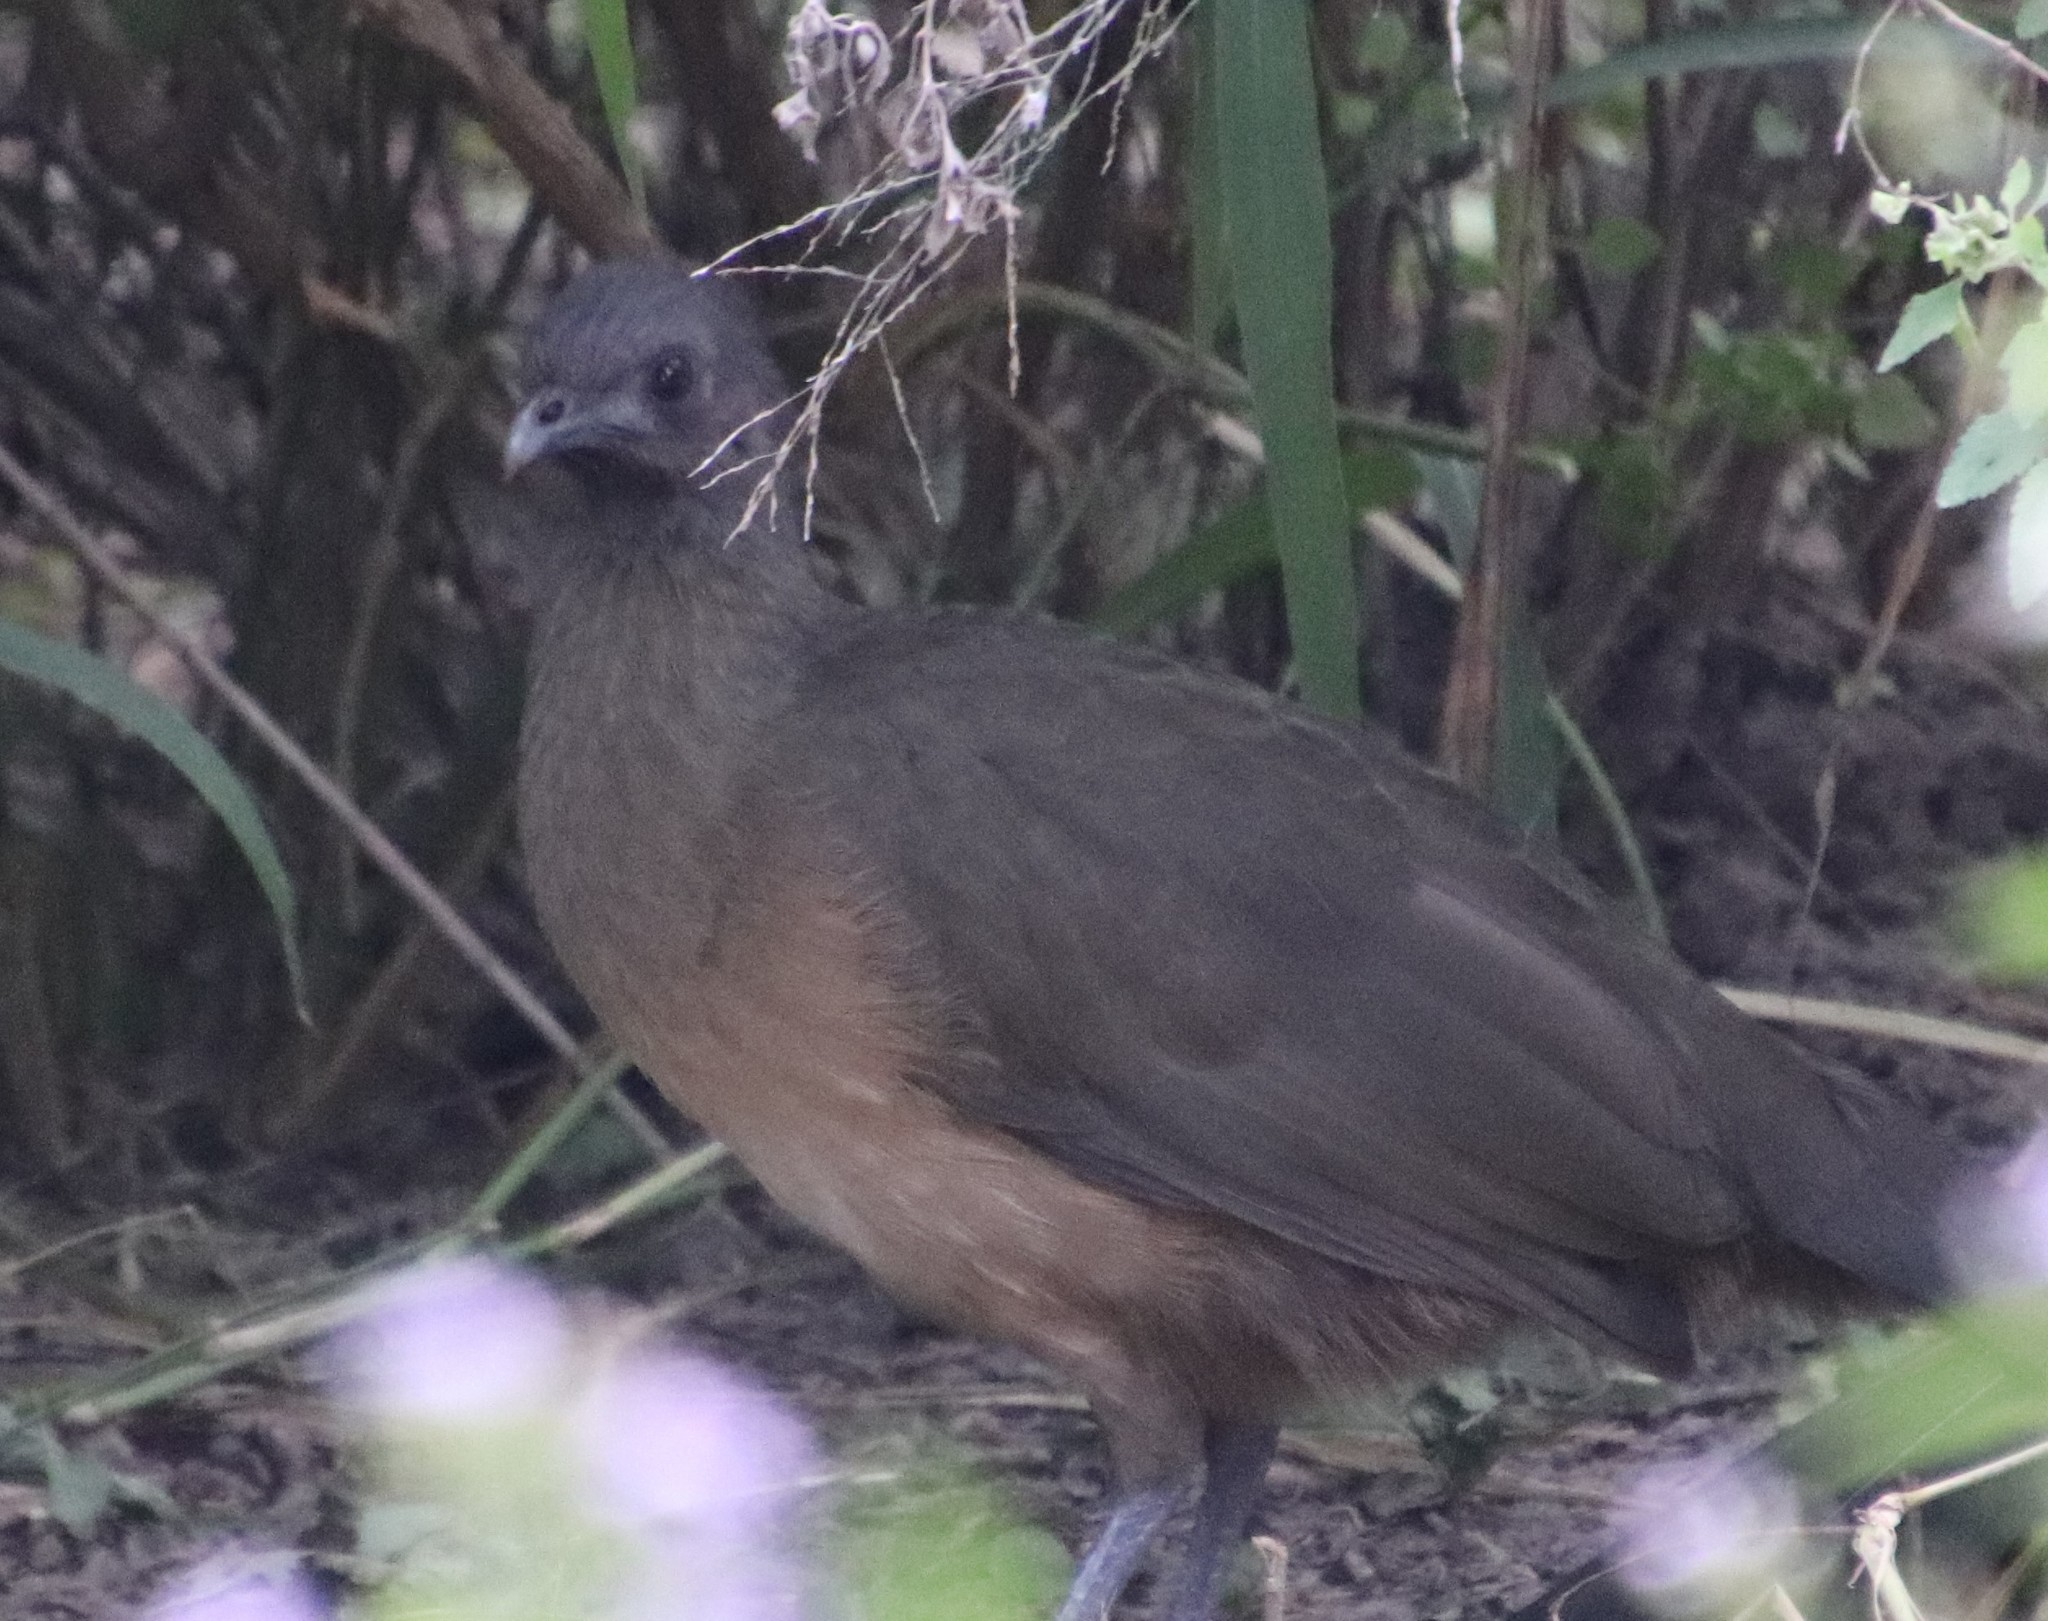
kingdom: Animalia
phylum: Chordata
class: Aves
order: Galliformes
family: Cracidae
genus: Ortalis
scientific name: Ortalis vetula
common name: Plain chachalaca
